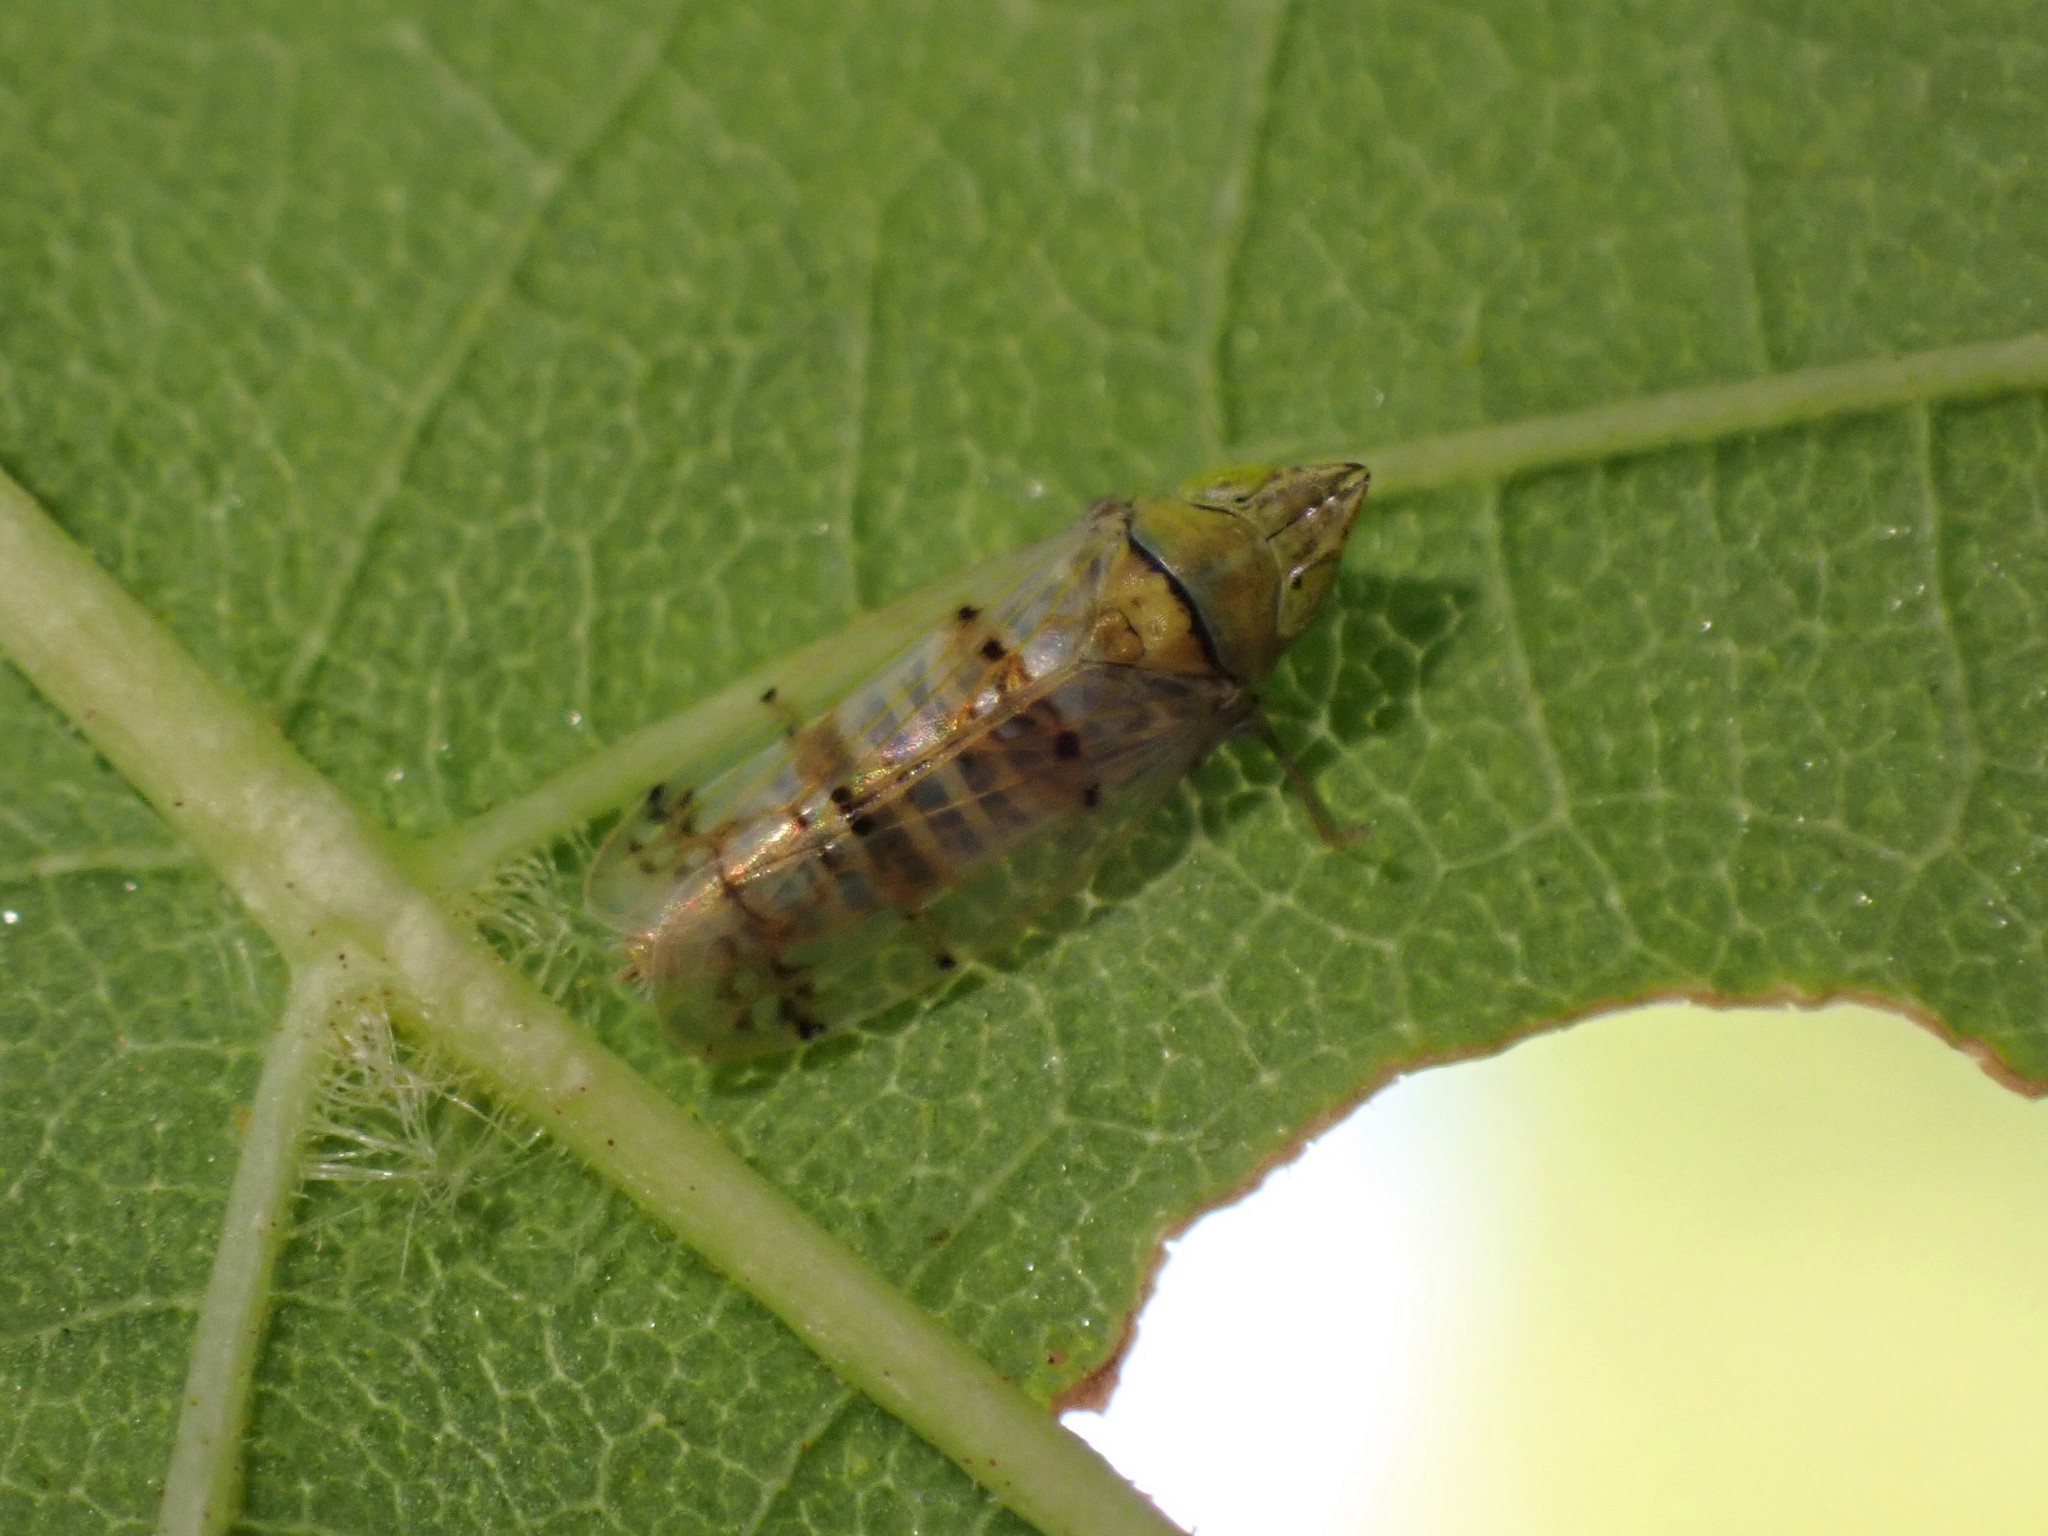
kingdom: Animalia
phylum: Arthropoda
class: Insecta
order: Hemiptera
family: Cicadellidae
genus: Japananus
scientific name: Japananus hyalinus
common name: The japanese maple leafhopper
